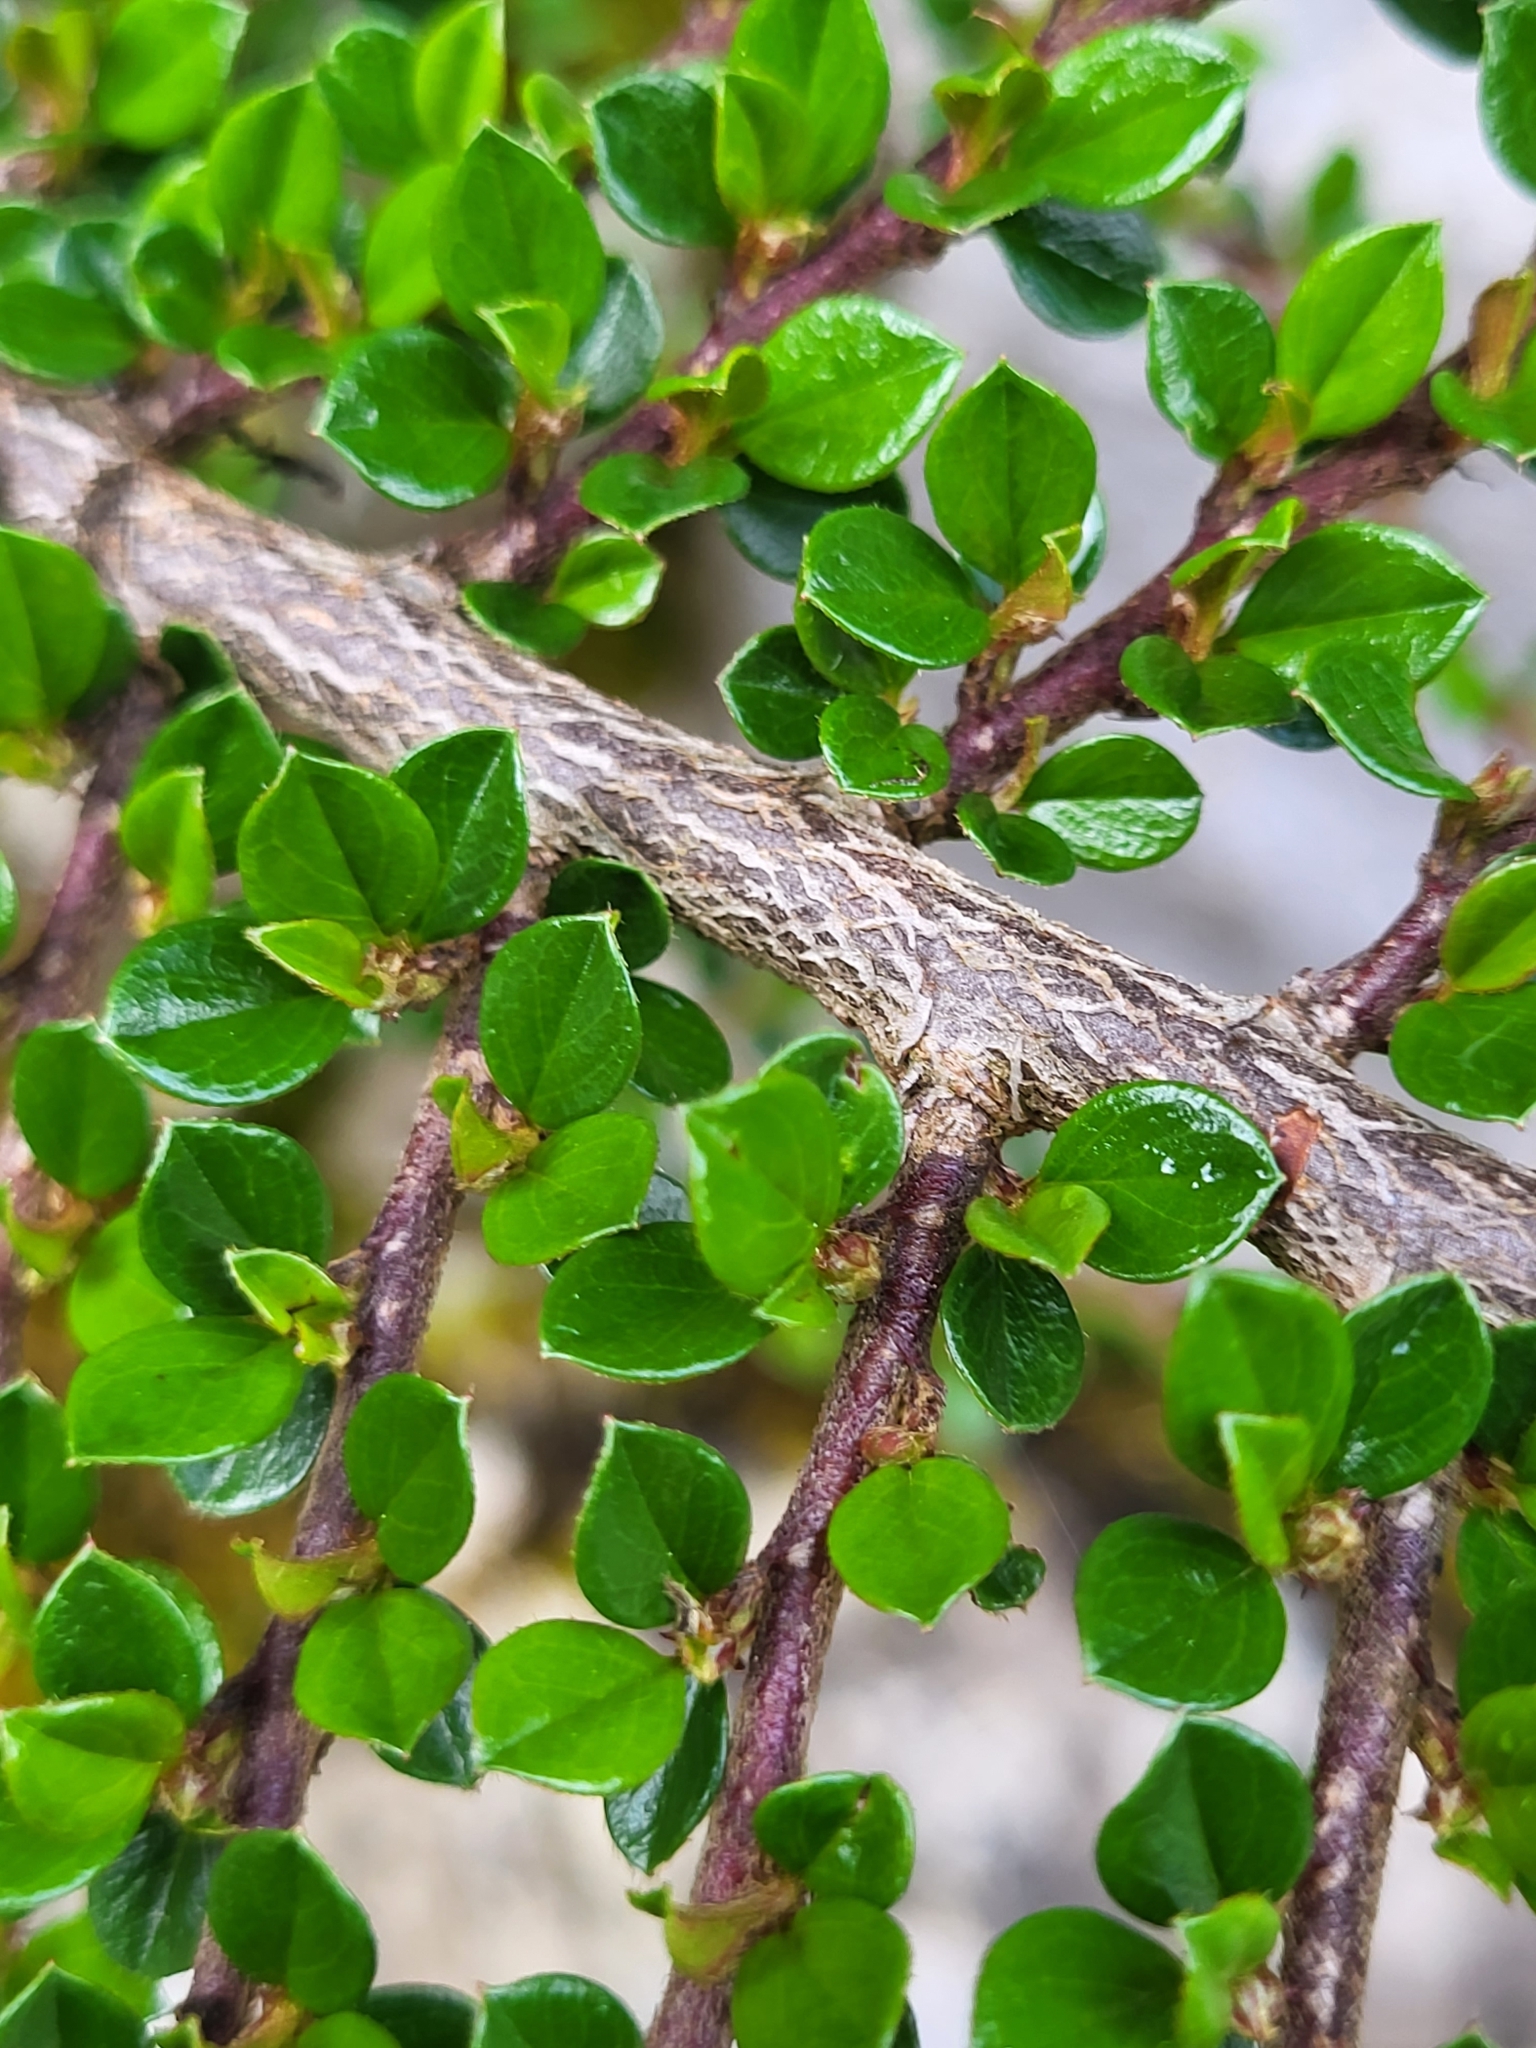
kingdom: Plantae
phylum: Tracheophyta
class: Magnoliopsida
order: Rosales
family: Rosaceae
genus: Cotoneaster
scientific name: Cotoneaster horizontalis
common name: Wall cotoneaster
